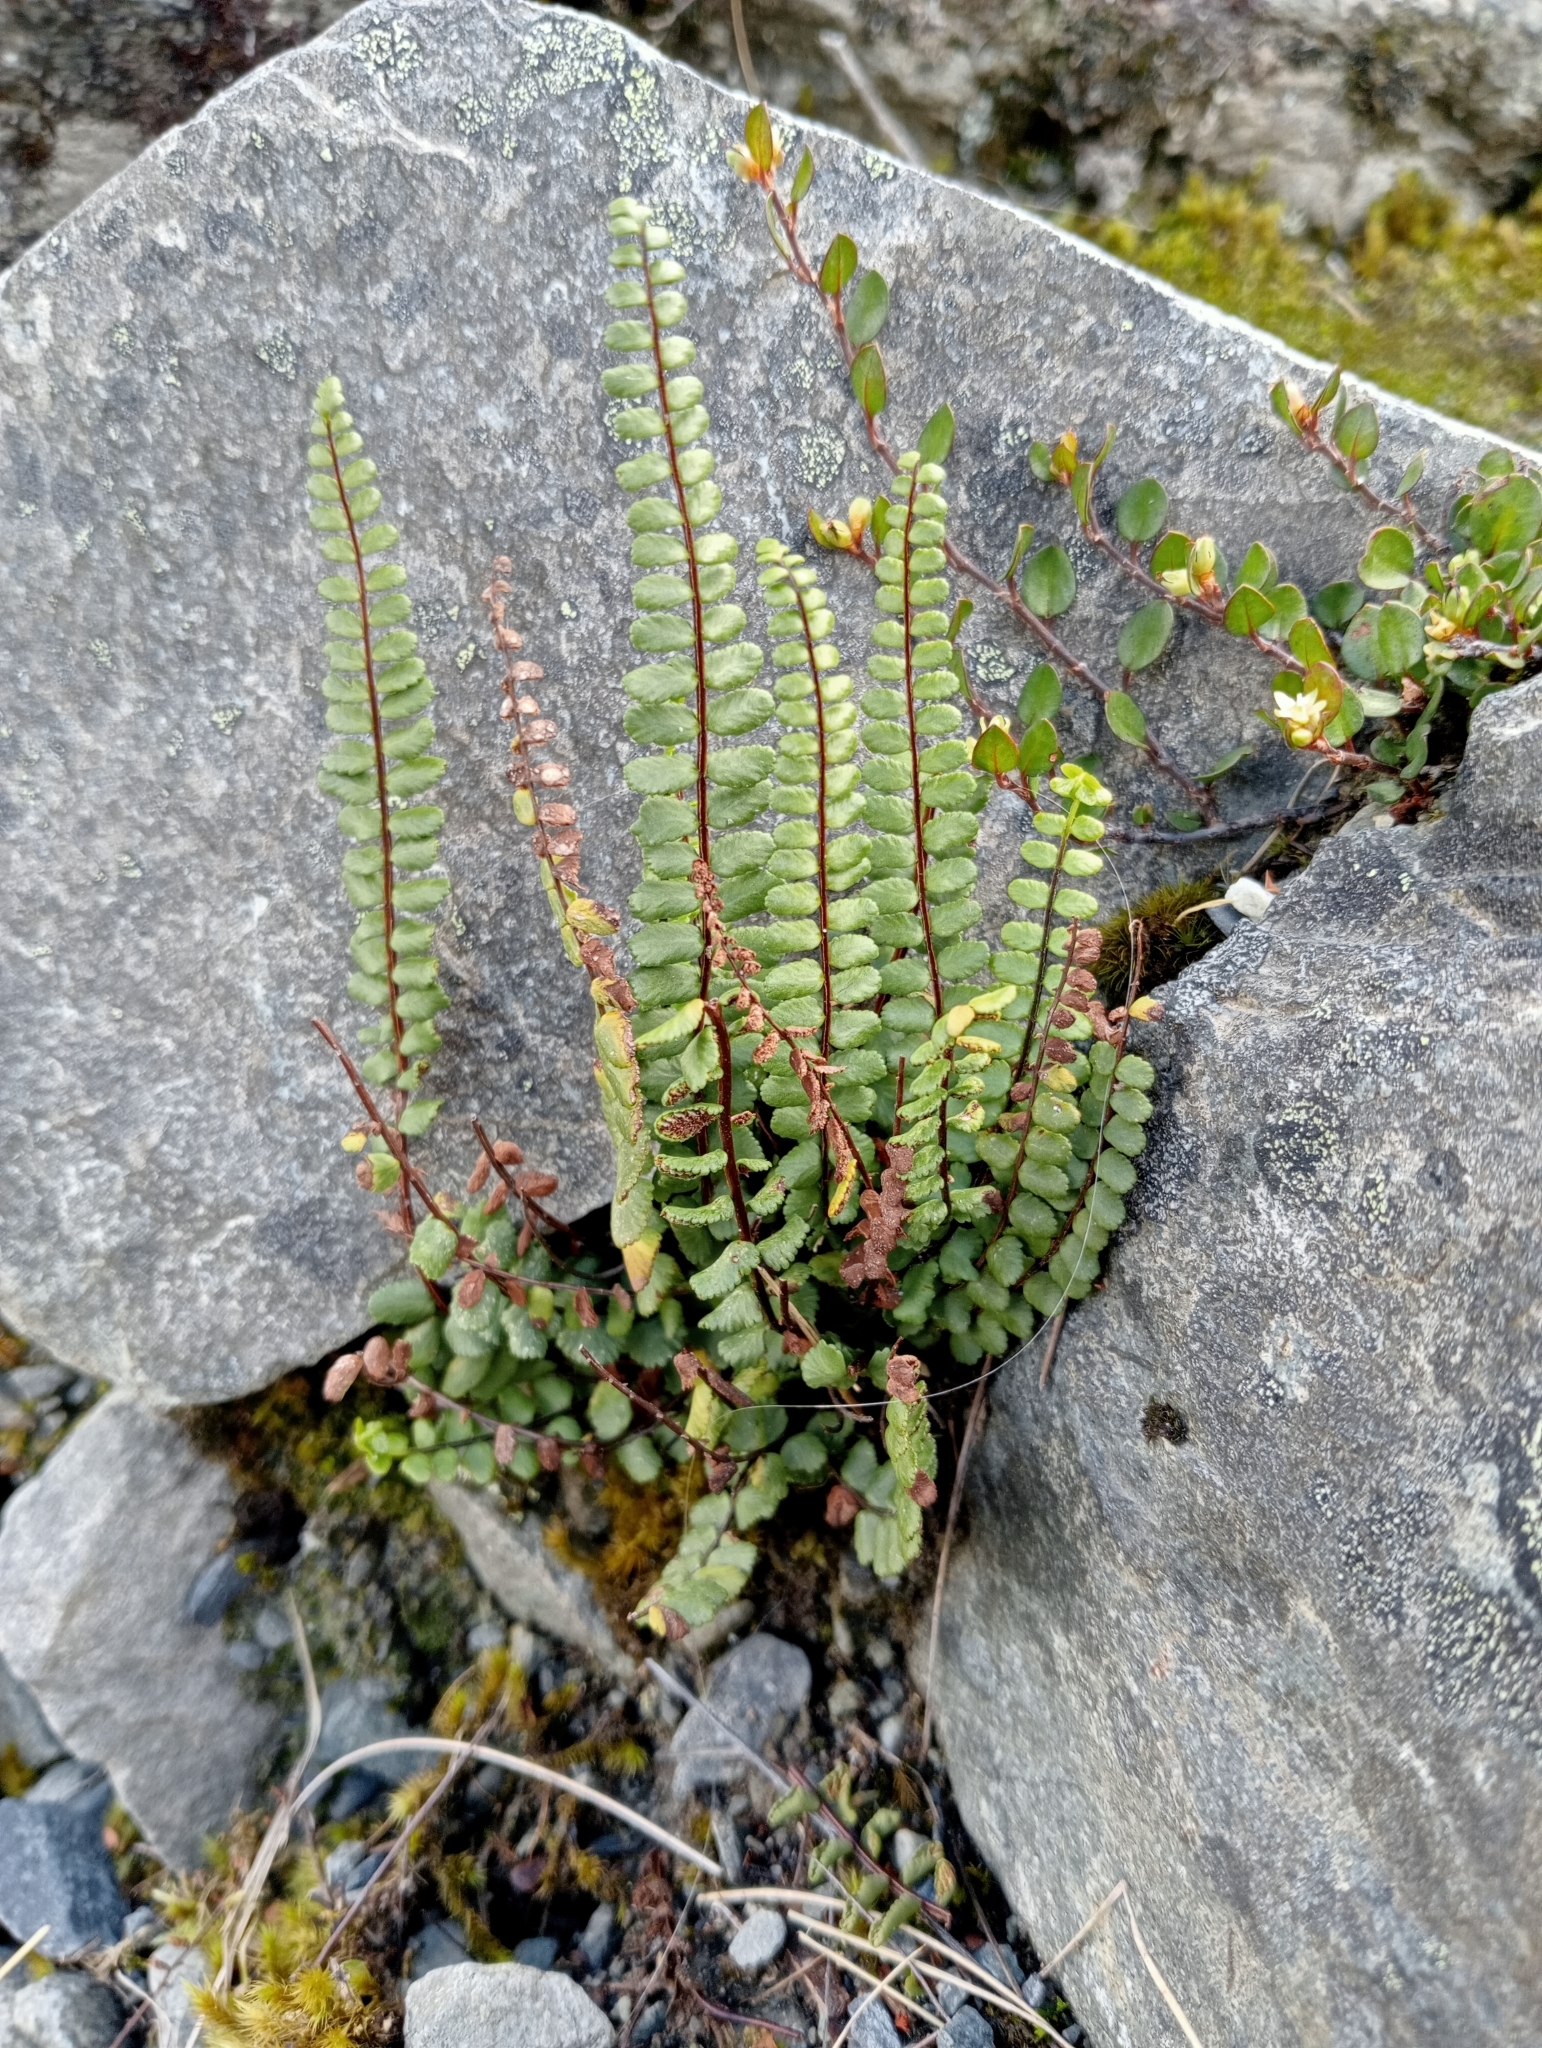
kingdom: Plantae
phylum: Tracheophyta
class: Polypodiopsida
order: Polypodiales
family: Aspleniaceae
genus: Asplenium
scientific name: Asplenium trichomanes
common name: Maidenhair spleenwort
